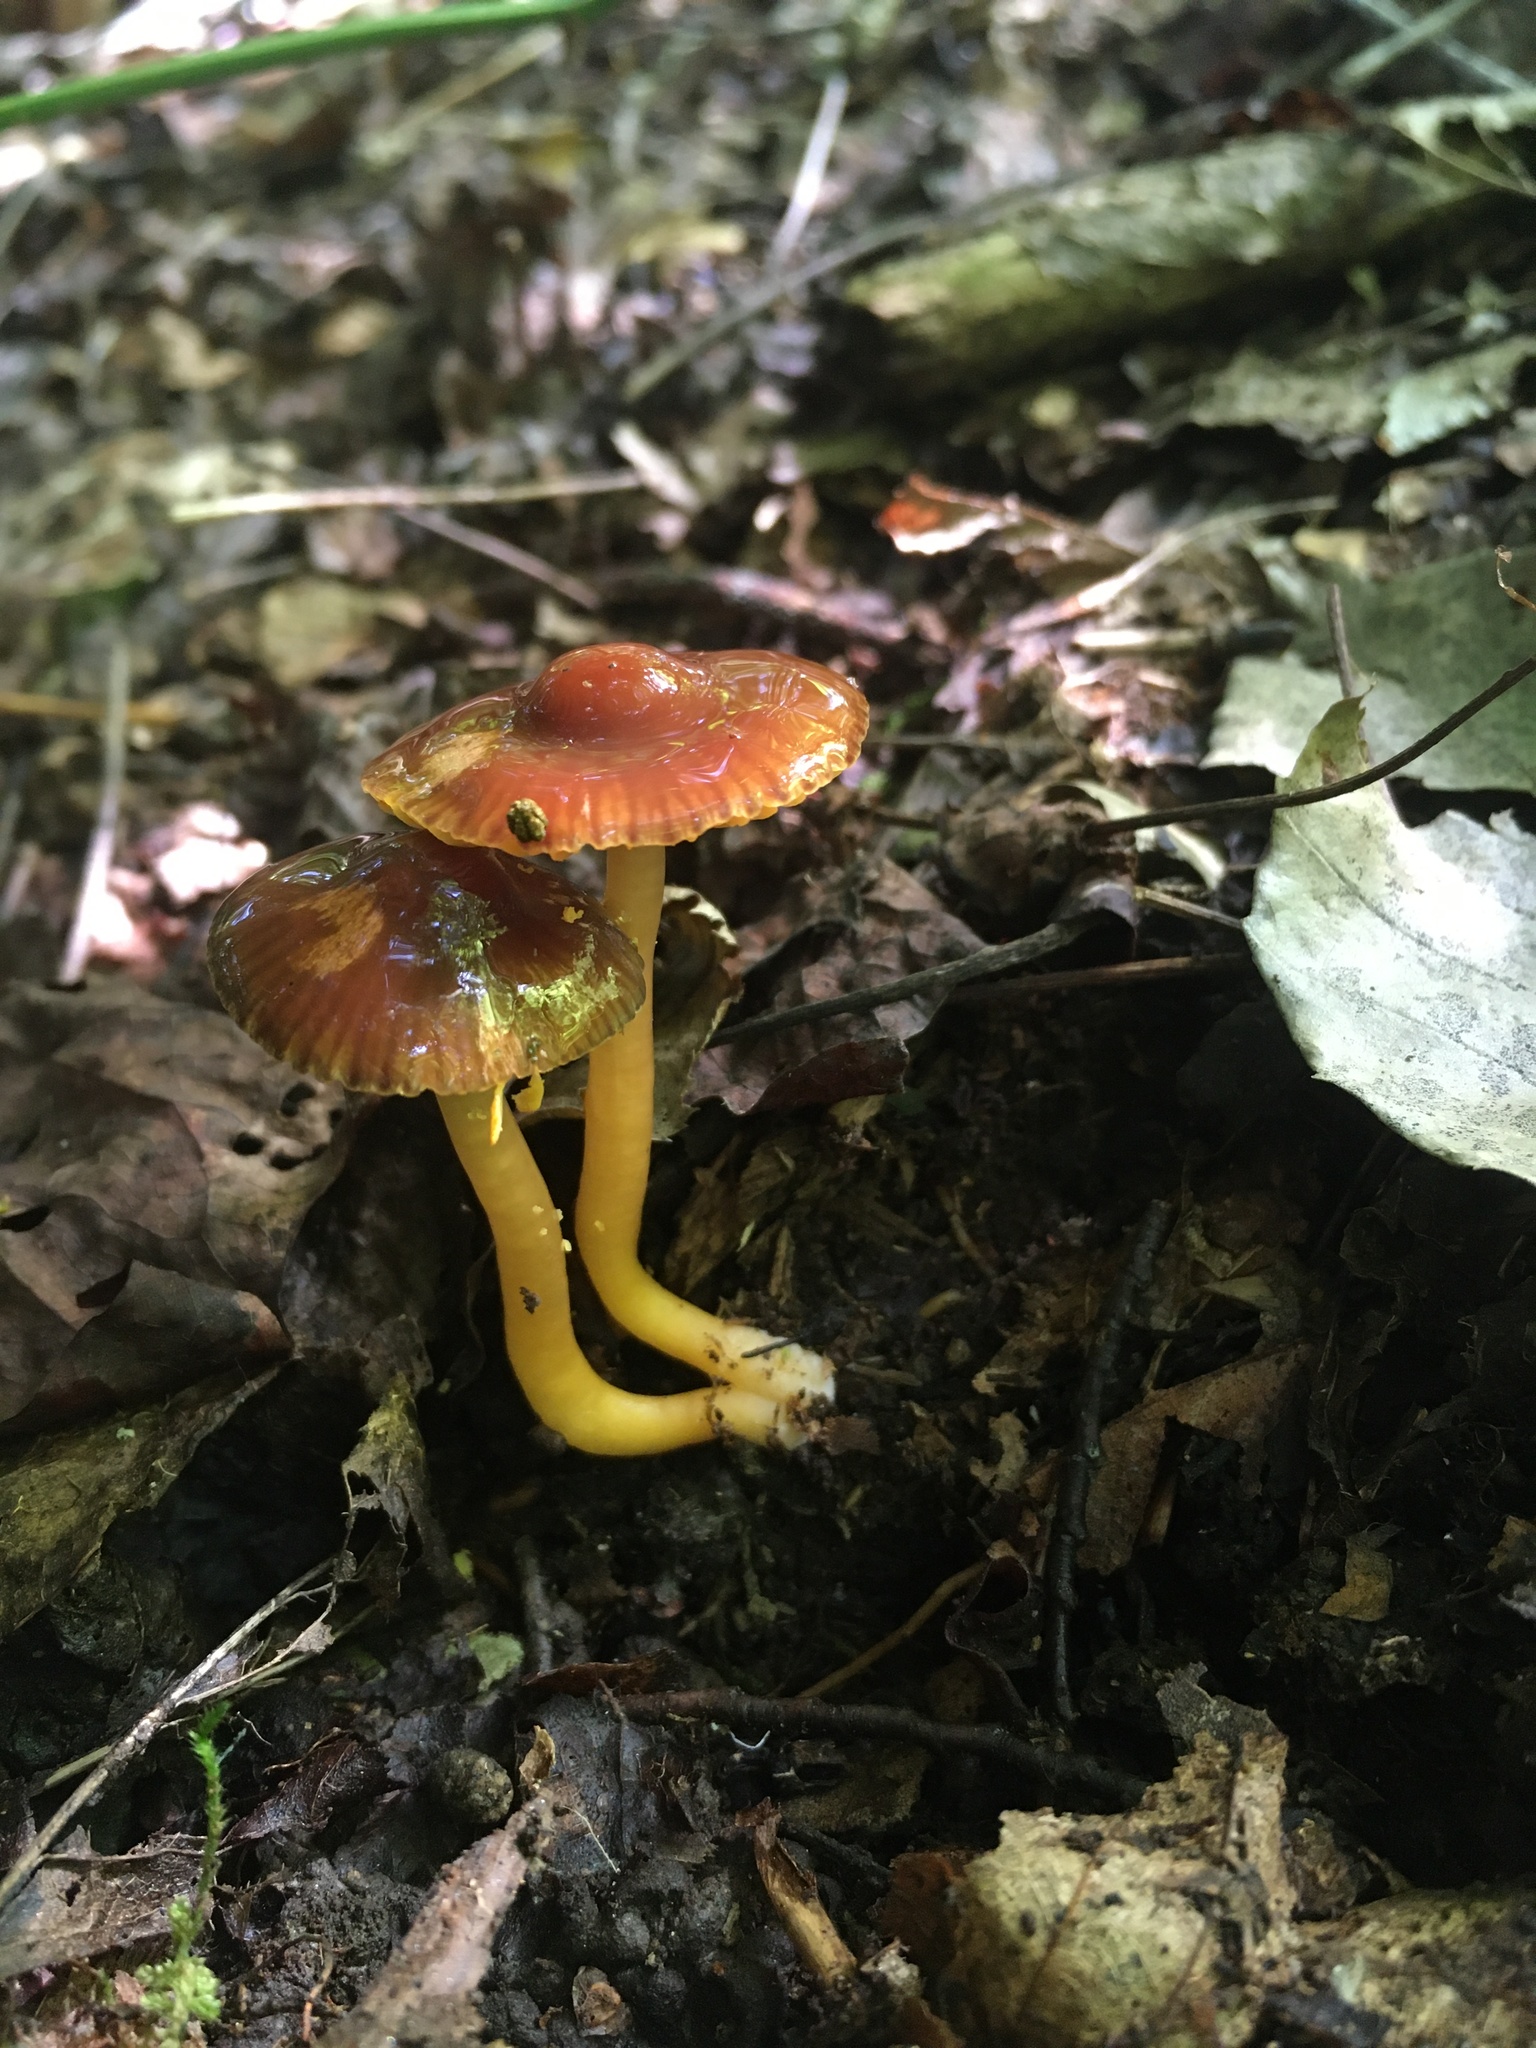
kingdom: Fungi
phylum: Basidiomycota
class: Agaricomycetes
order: Agaricales
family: Hygrophoraceae
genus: Gliophorus
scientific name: Gliophorus psittacinus
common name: Parrot wax-cap
